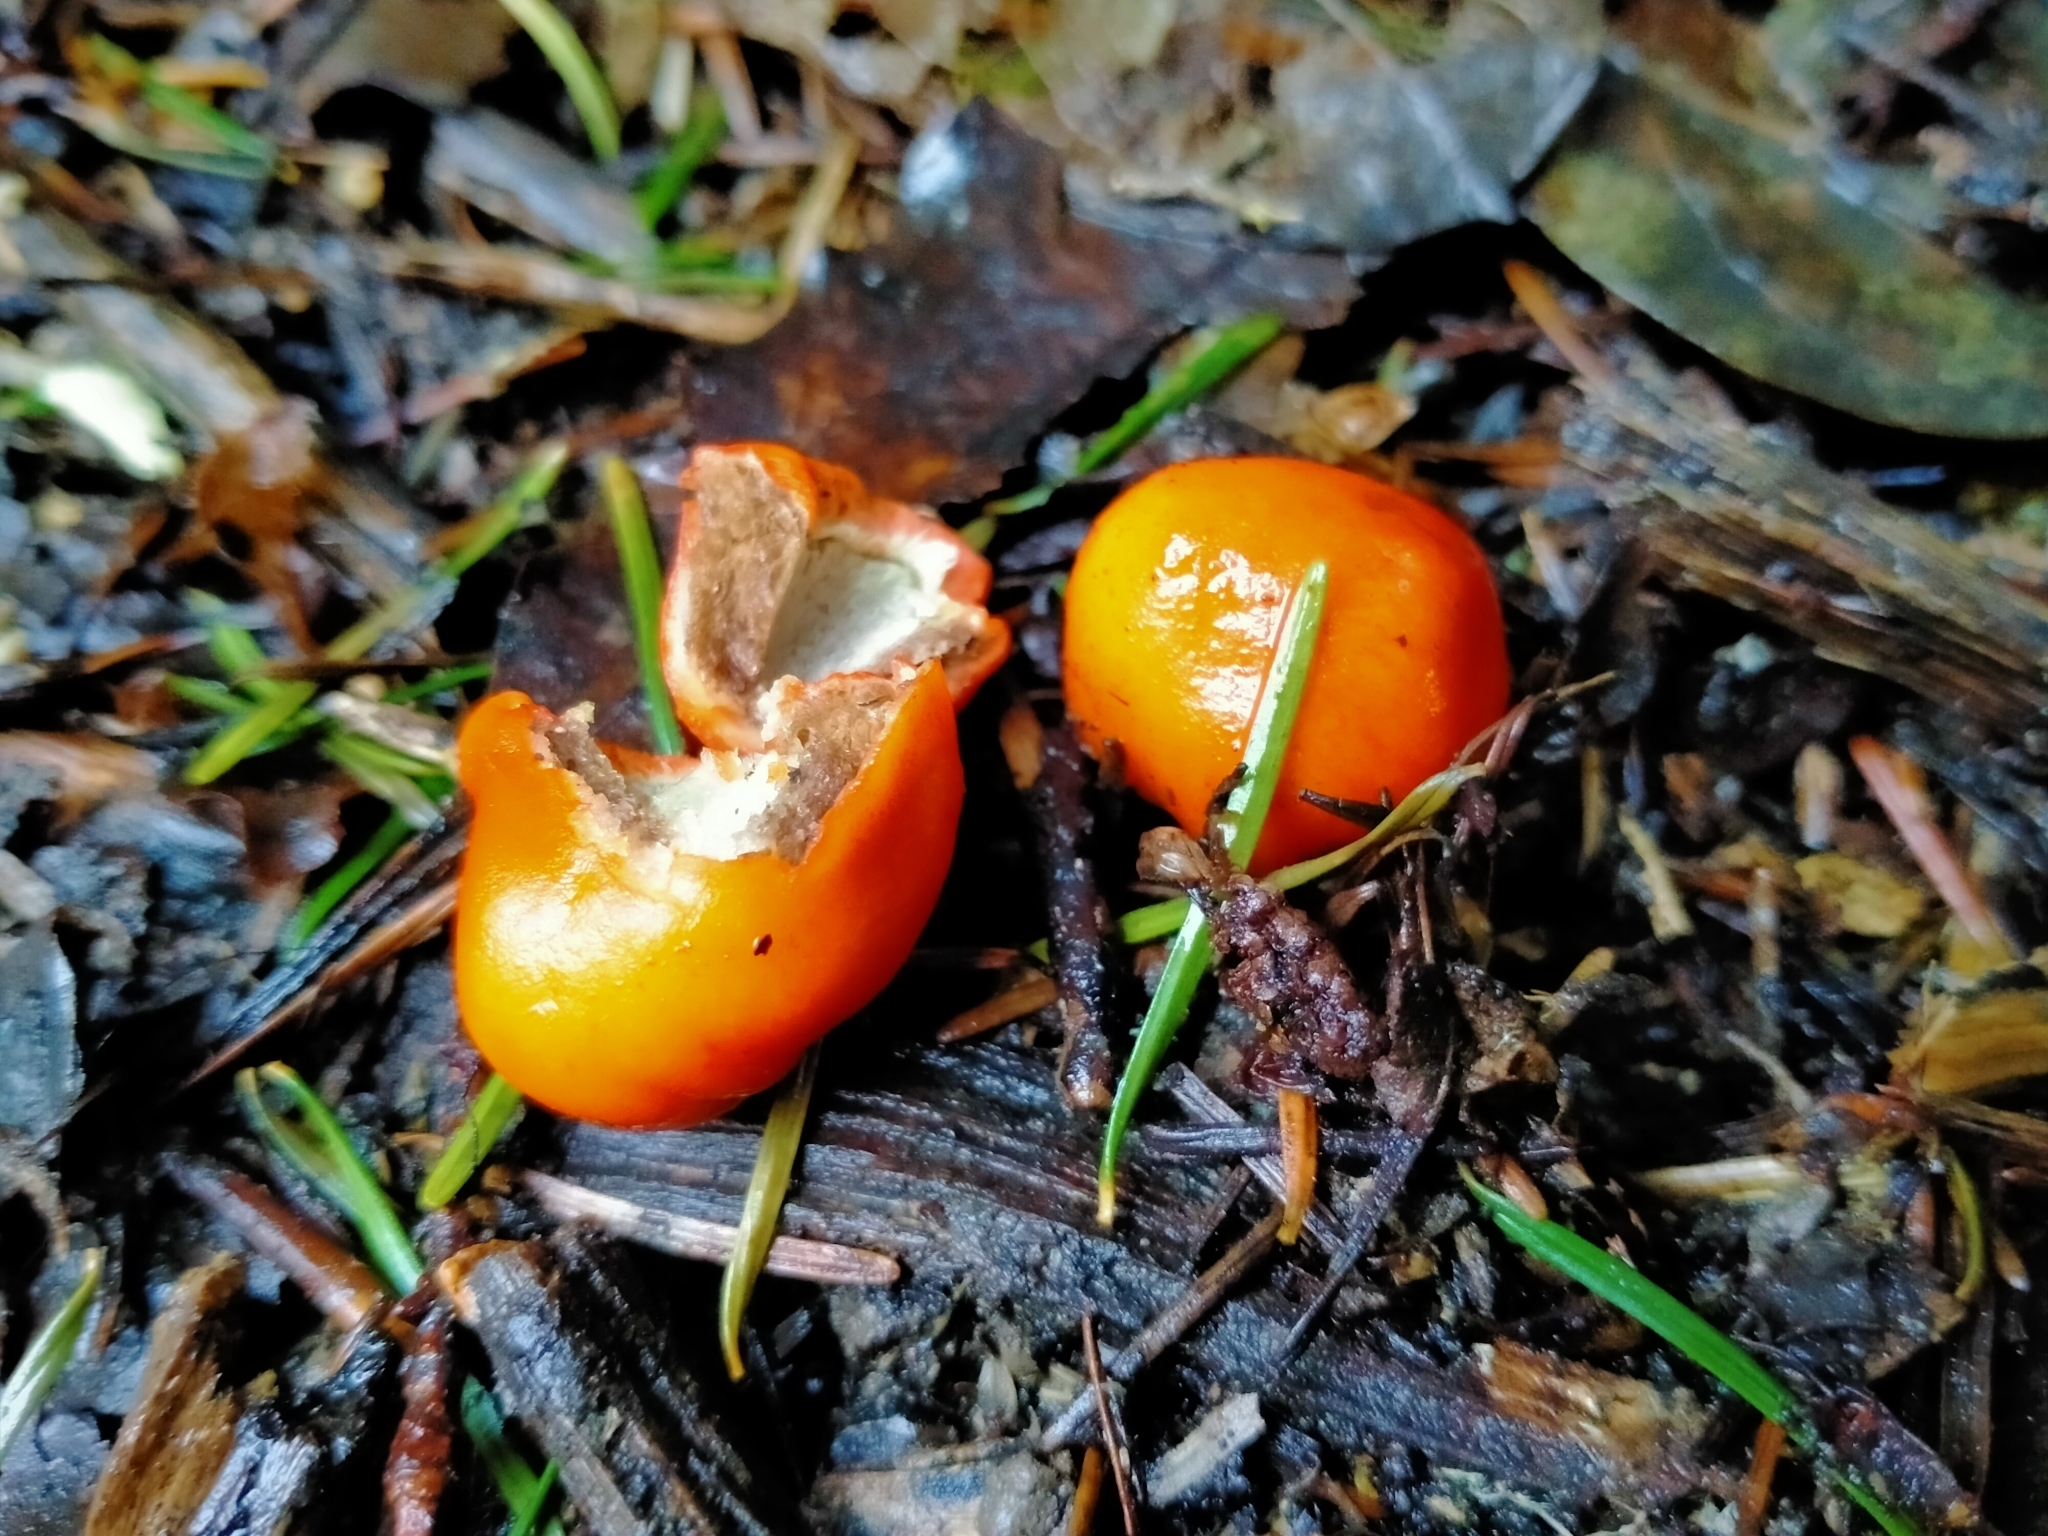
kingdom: Fungi
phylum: Basidiomycota
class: Agaricomycetes
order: Agaricales
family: Strophariaceae
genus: Leratiomyces
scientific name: Leratiomyces erythrocephalus
